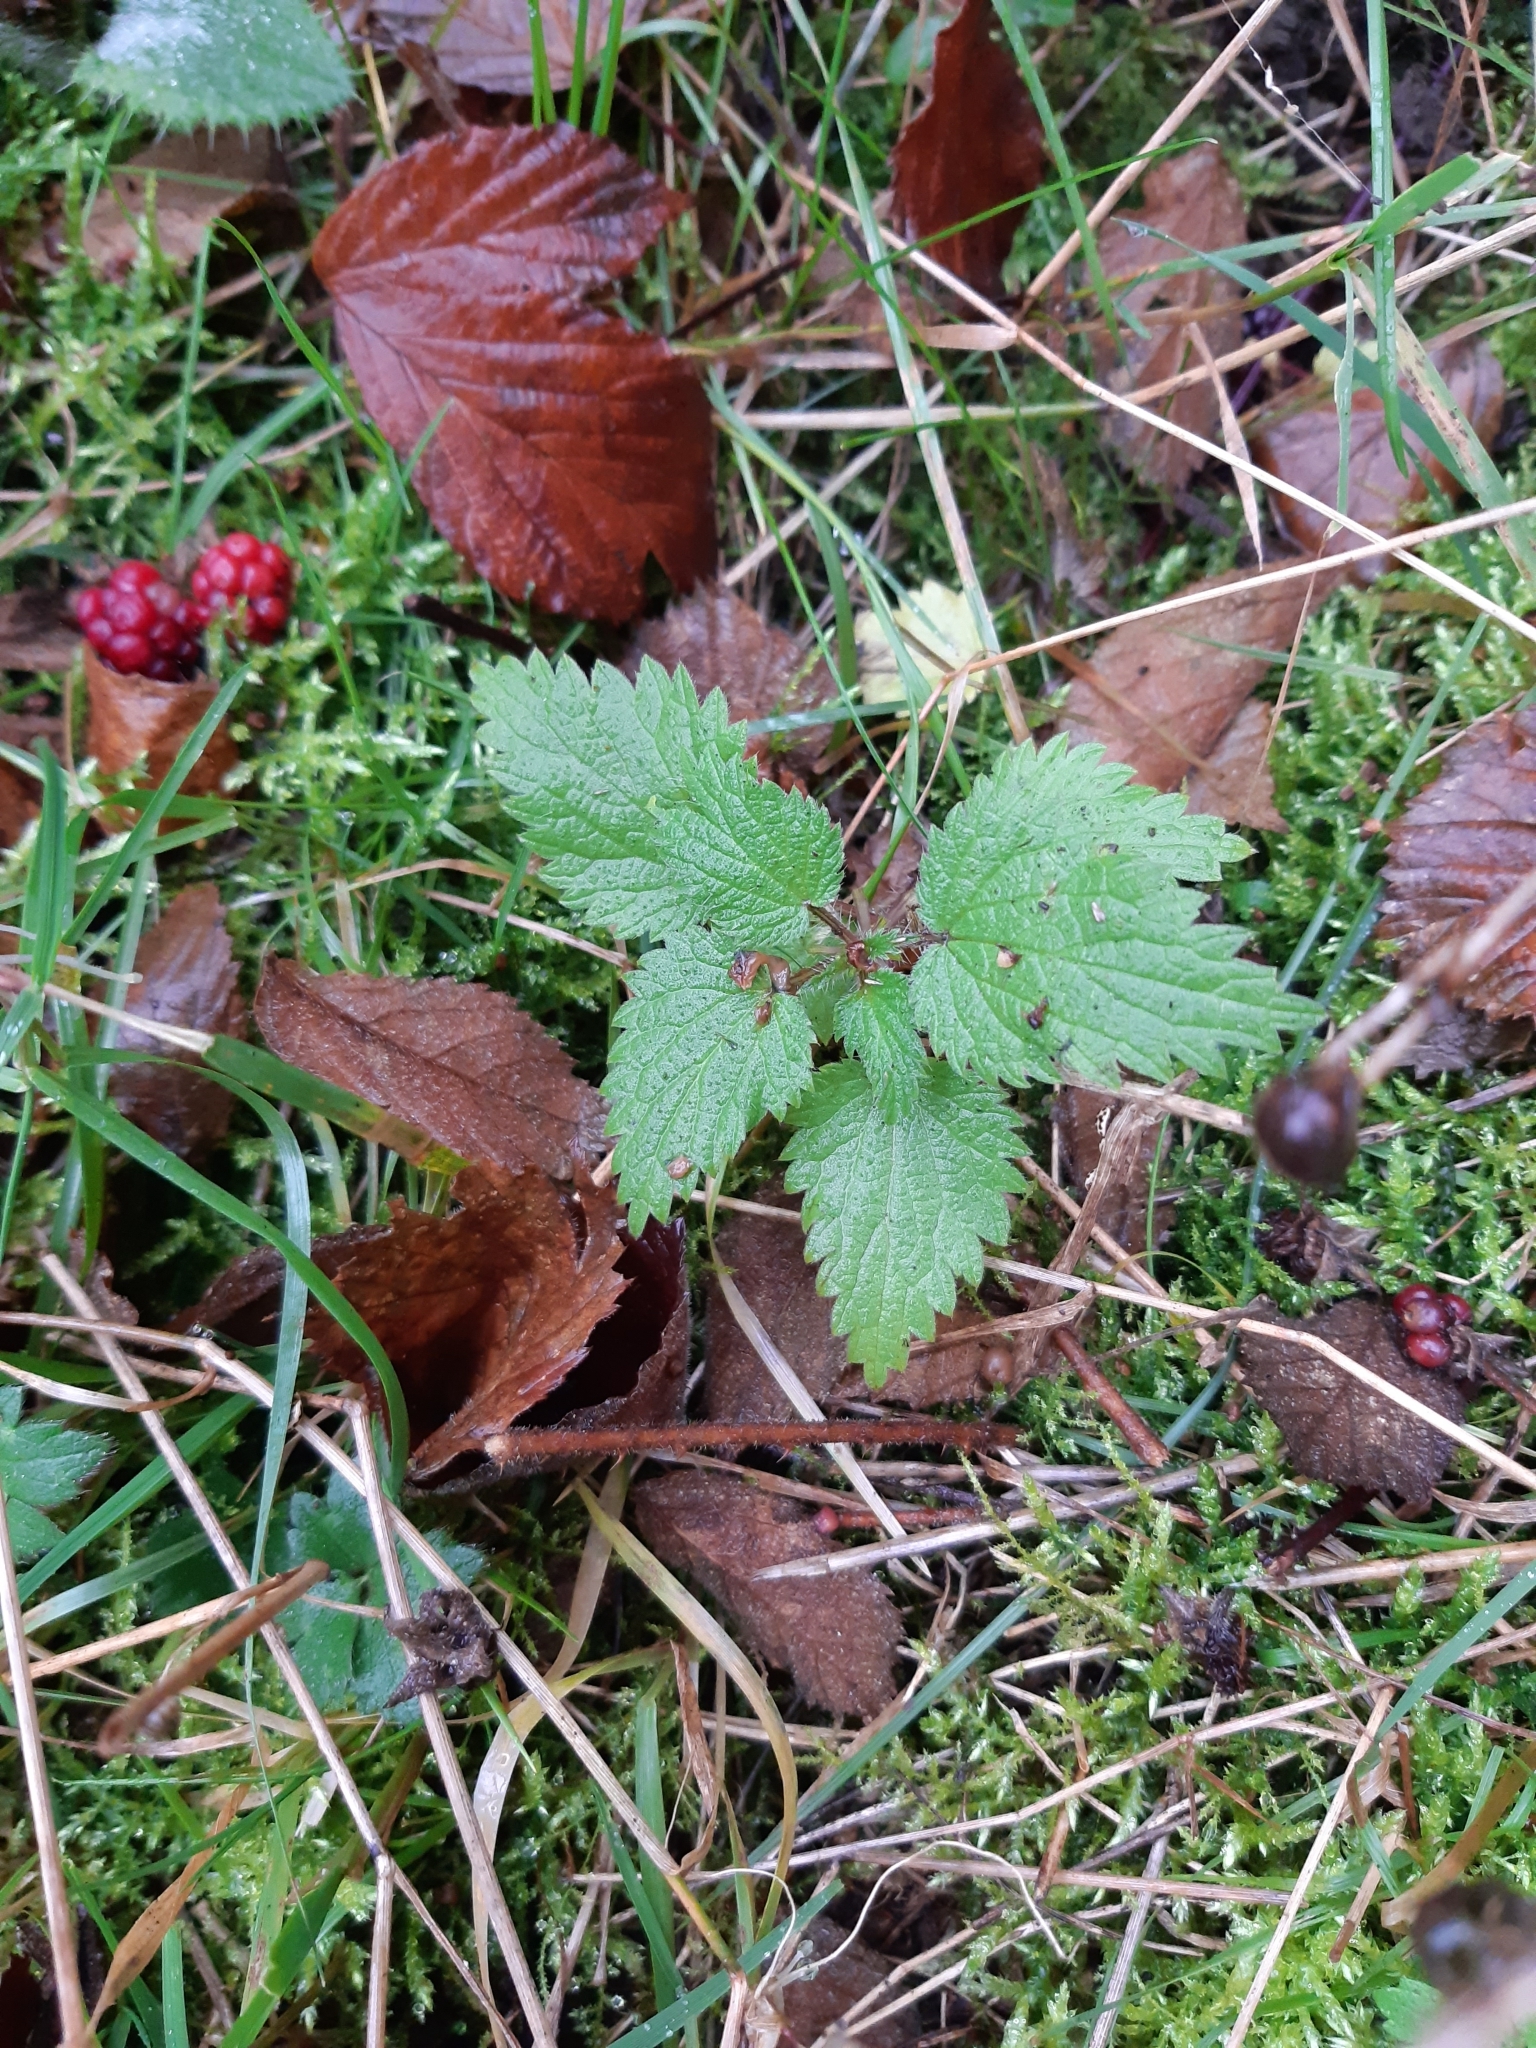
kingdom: Plantae
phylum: Tracheophyta
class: Magnoliopsida
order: Rosales
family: Urticaceae
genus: Urtica
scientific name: Urtica dioica
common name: Common nettle
